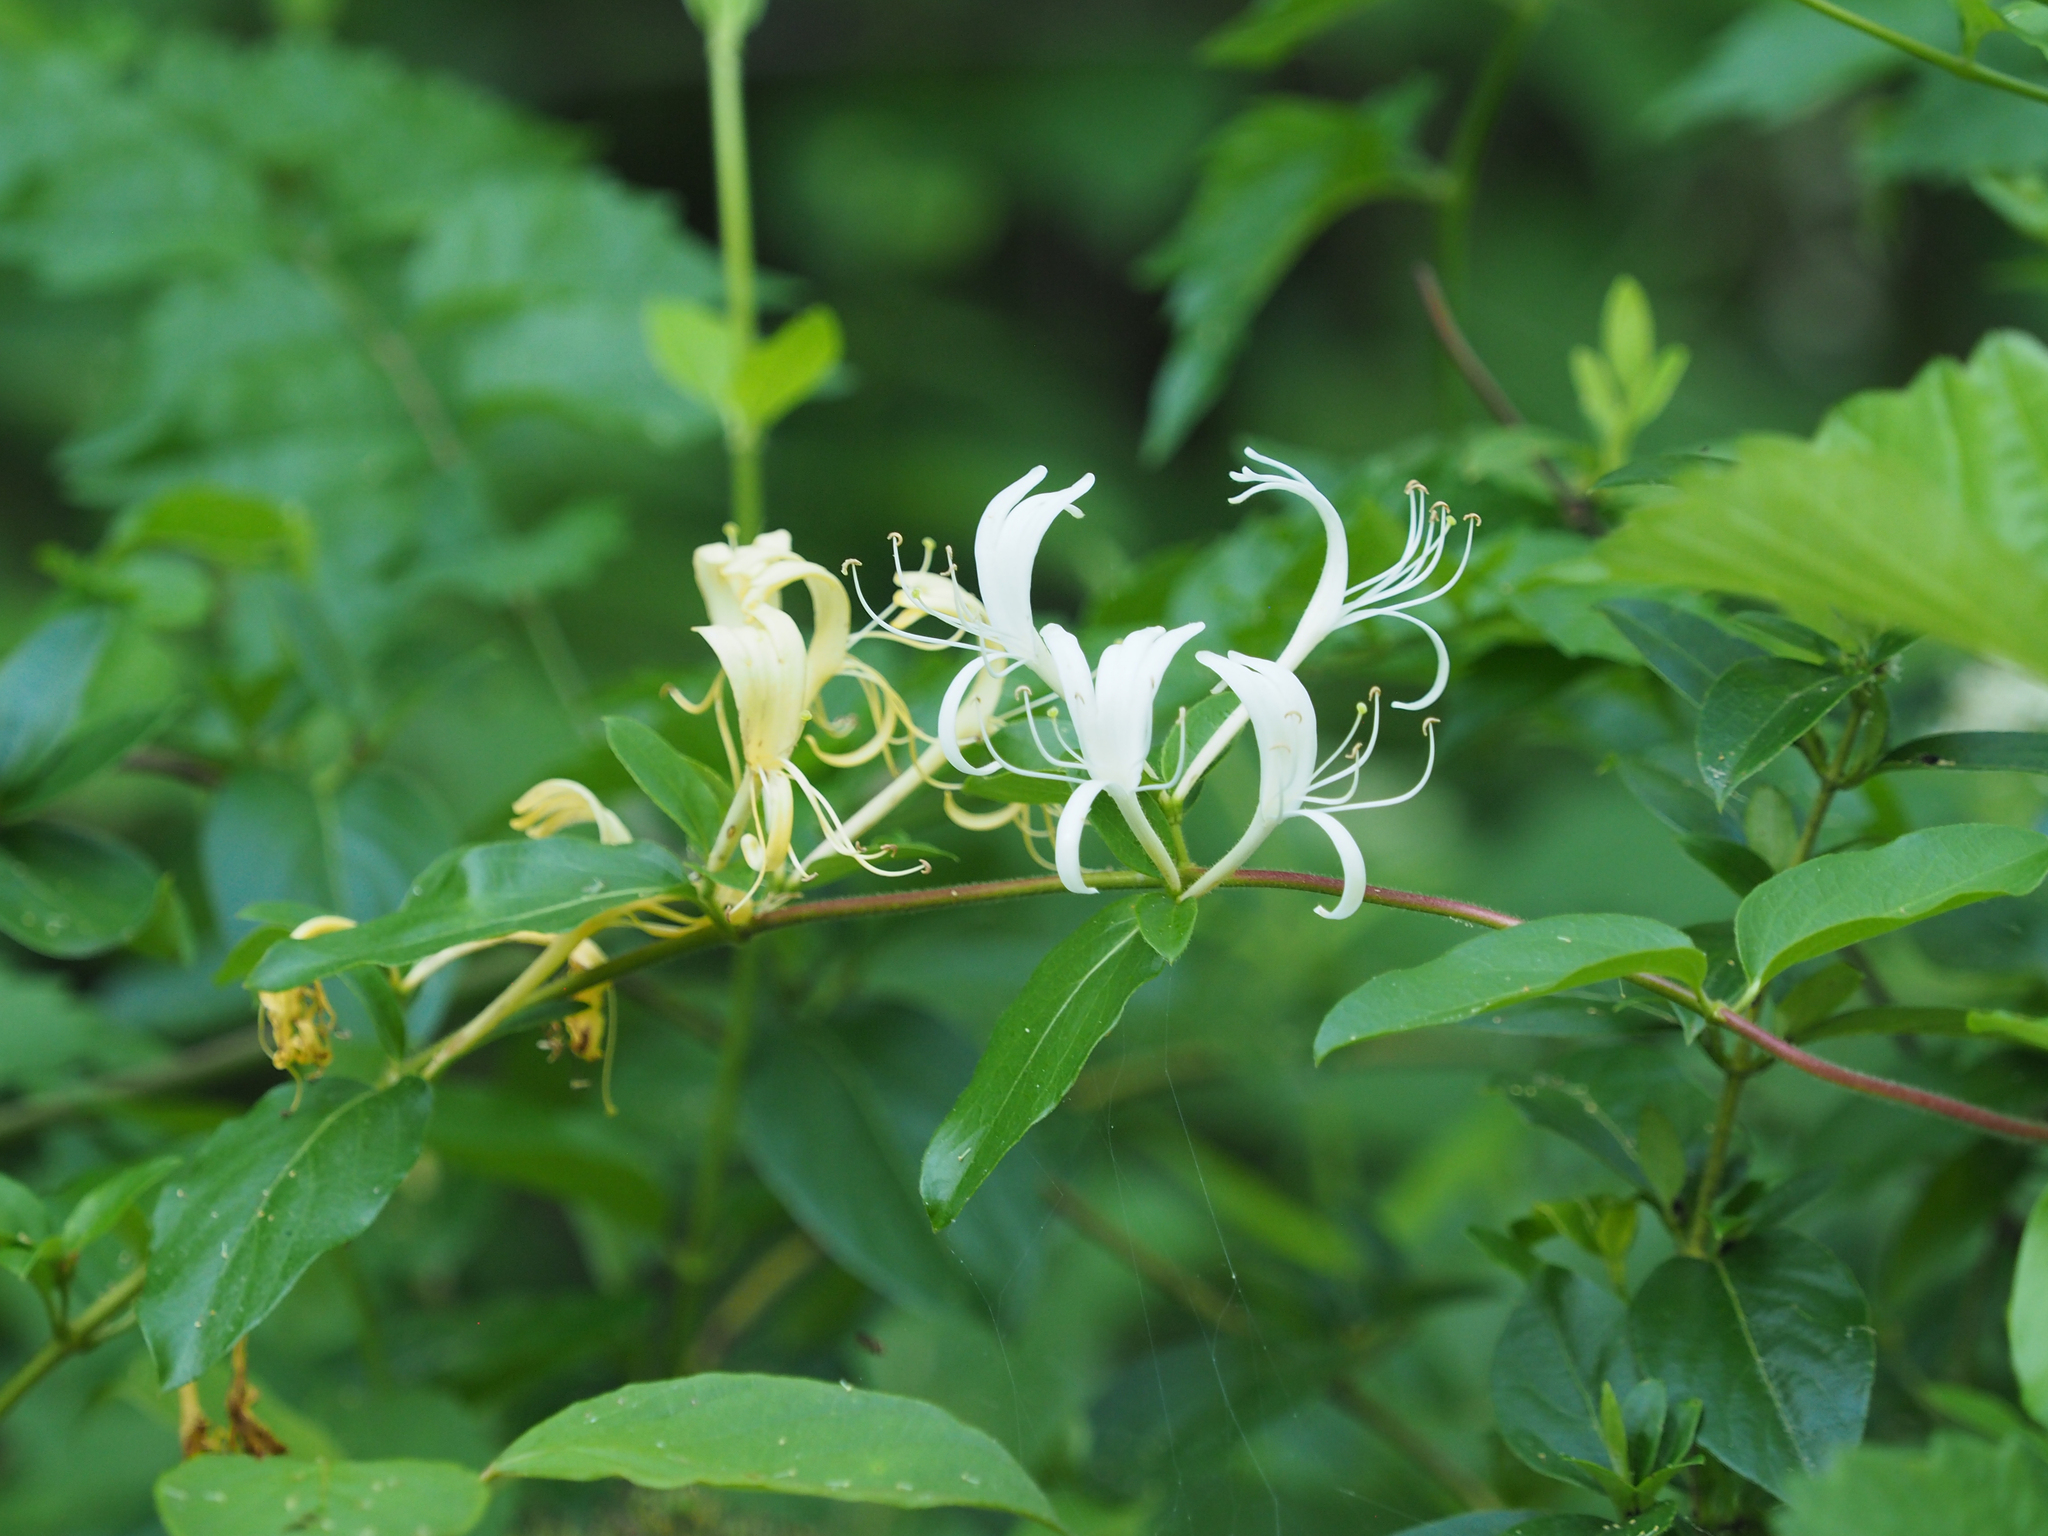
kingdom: Plantae
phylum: Tracheophyta
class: Magnoliopsida
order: Dipsacales
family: Caprifoliaceae
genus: Lonicera
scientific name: Lonicera japonica
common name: Japanese honeysuckle
